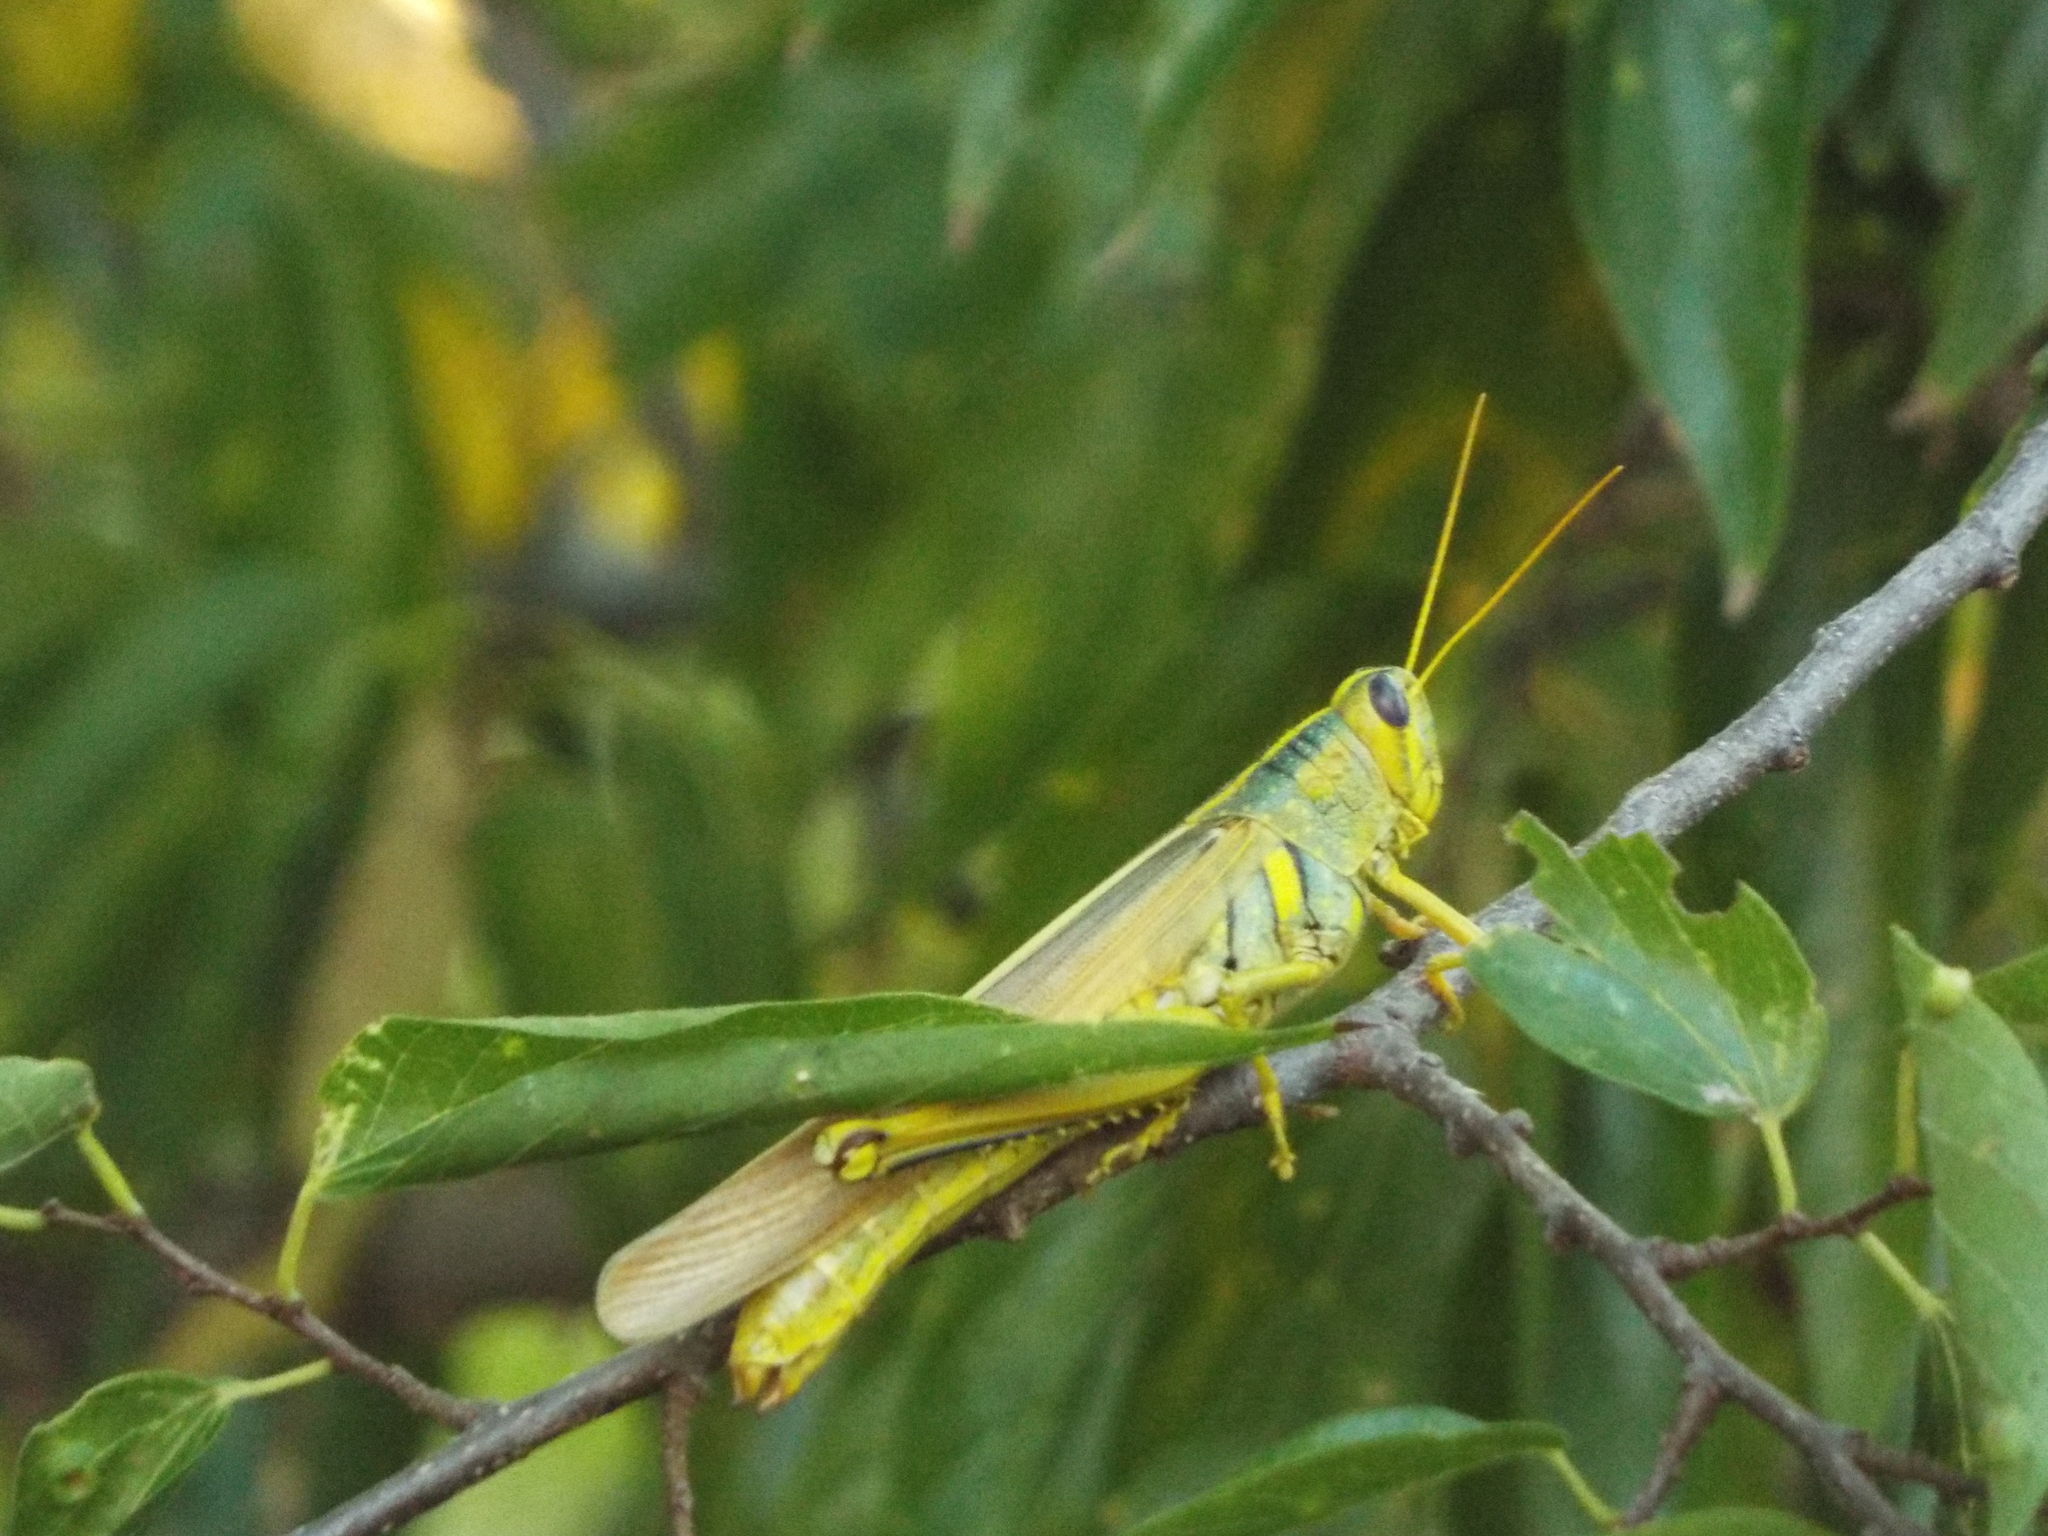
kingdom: Animalia
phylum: Arthropoda
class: Insecta
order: Orthoptera
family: Acrididae
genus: Schistocerca
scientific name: Schistocerca lineata
